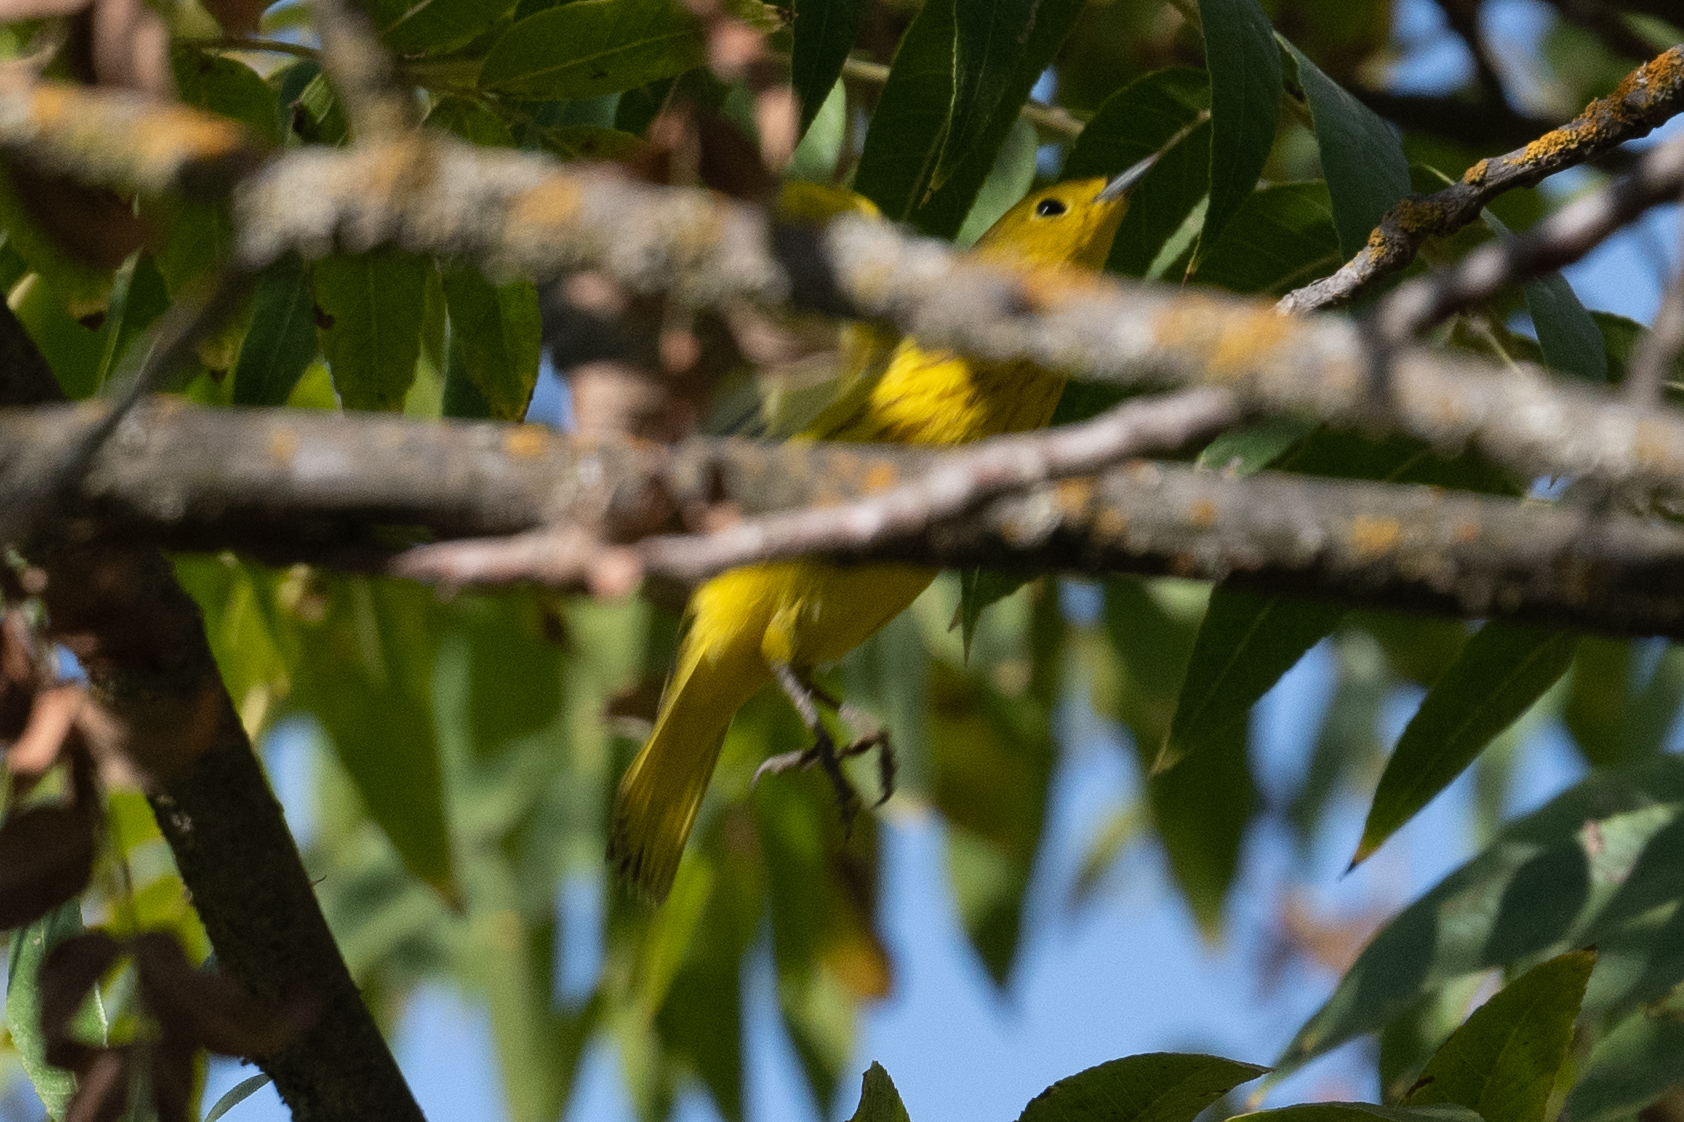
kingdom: Animalia
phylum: Chordata
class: Aves
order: Passeriformes
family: Parulidae
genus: Setophaga
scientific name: Setophaga petechia
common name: Yellow warbler
